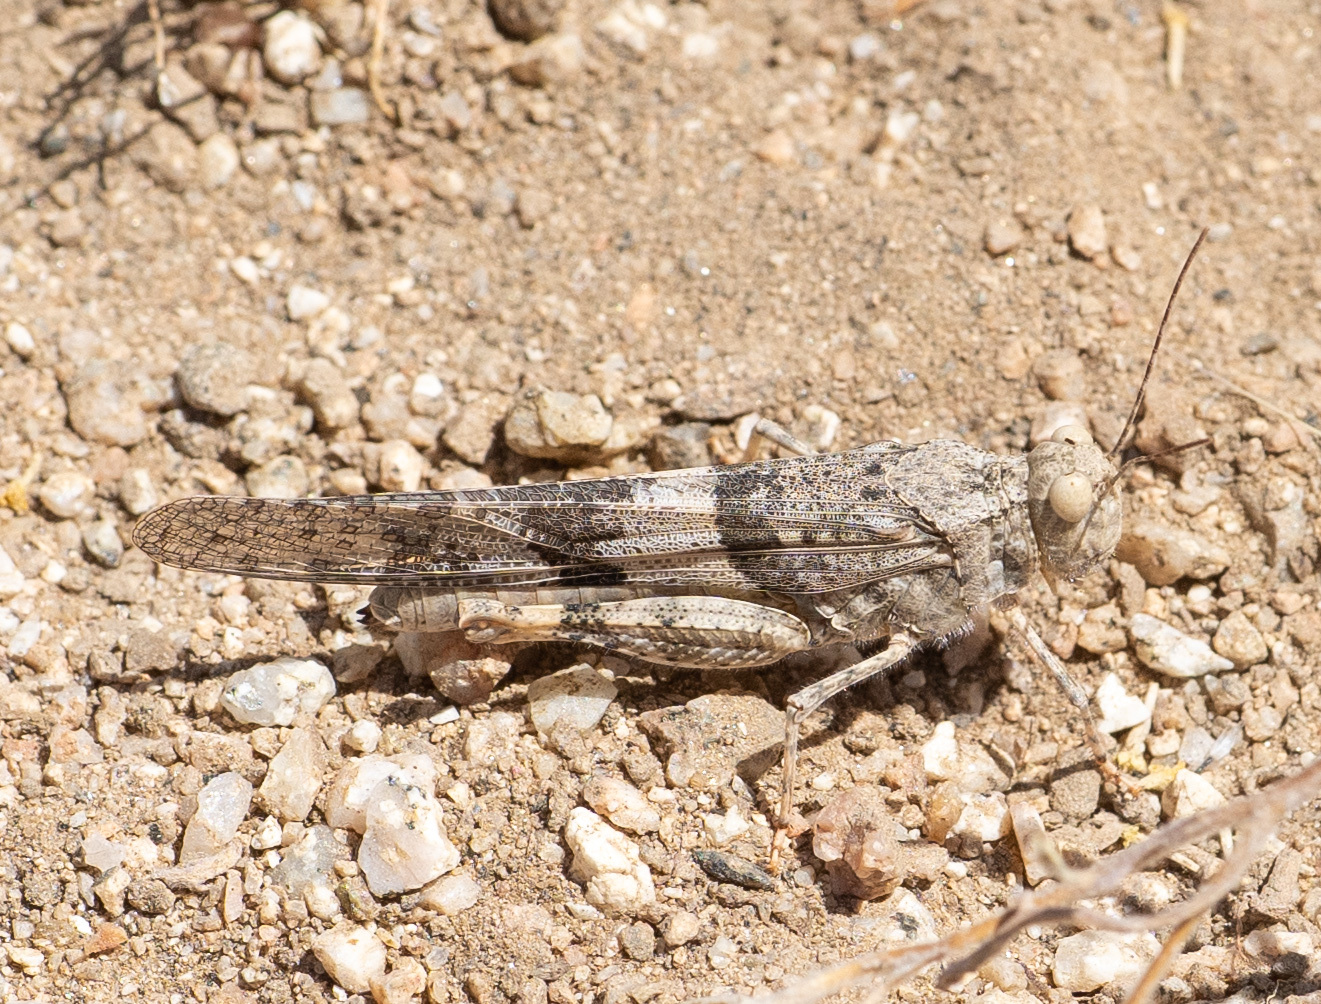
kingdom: Animalia
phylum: Arthropoda
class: Insecta
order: Orthoptera
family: Acrididae
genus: Trimerotropis
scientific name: Trimerotropis pallidipennis
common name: Pallid-winged grasshopper
